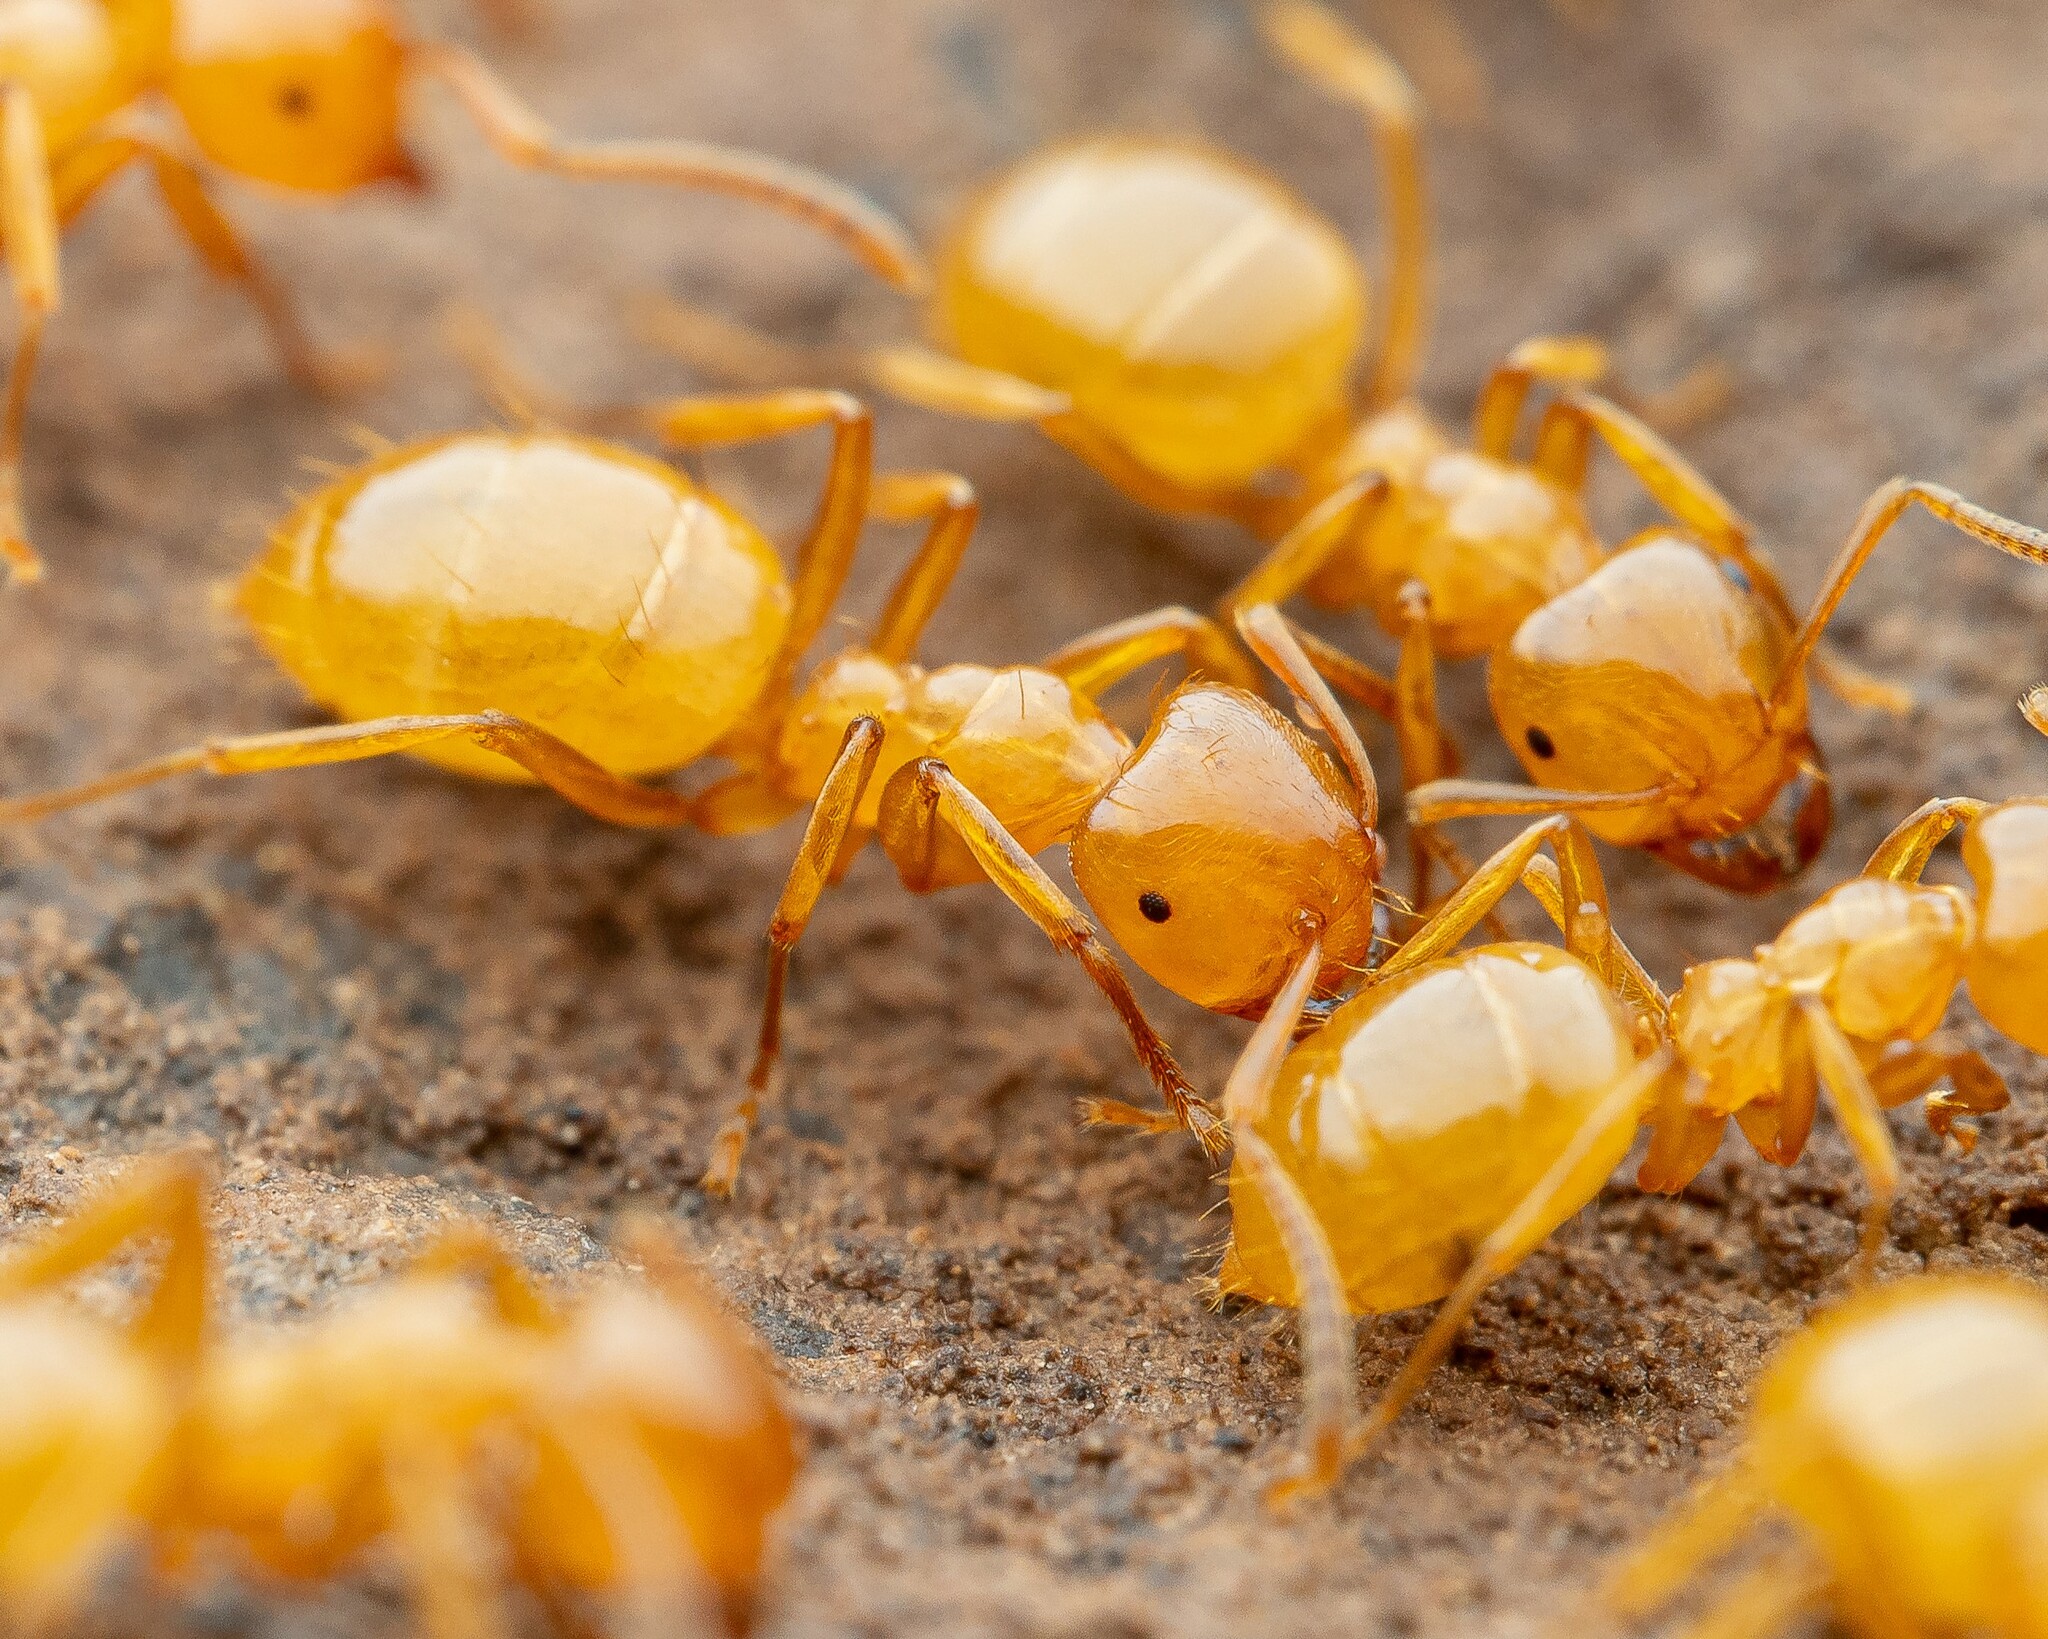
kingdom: Animalia
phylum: Arthropoda
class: Insecta
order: Hymenoptera
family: Formicidae
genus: Lasius
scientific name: Lasius arizonicus
